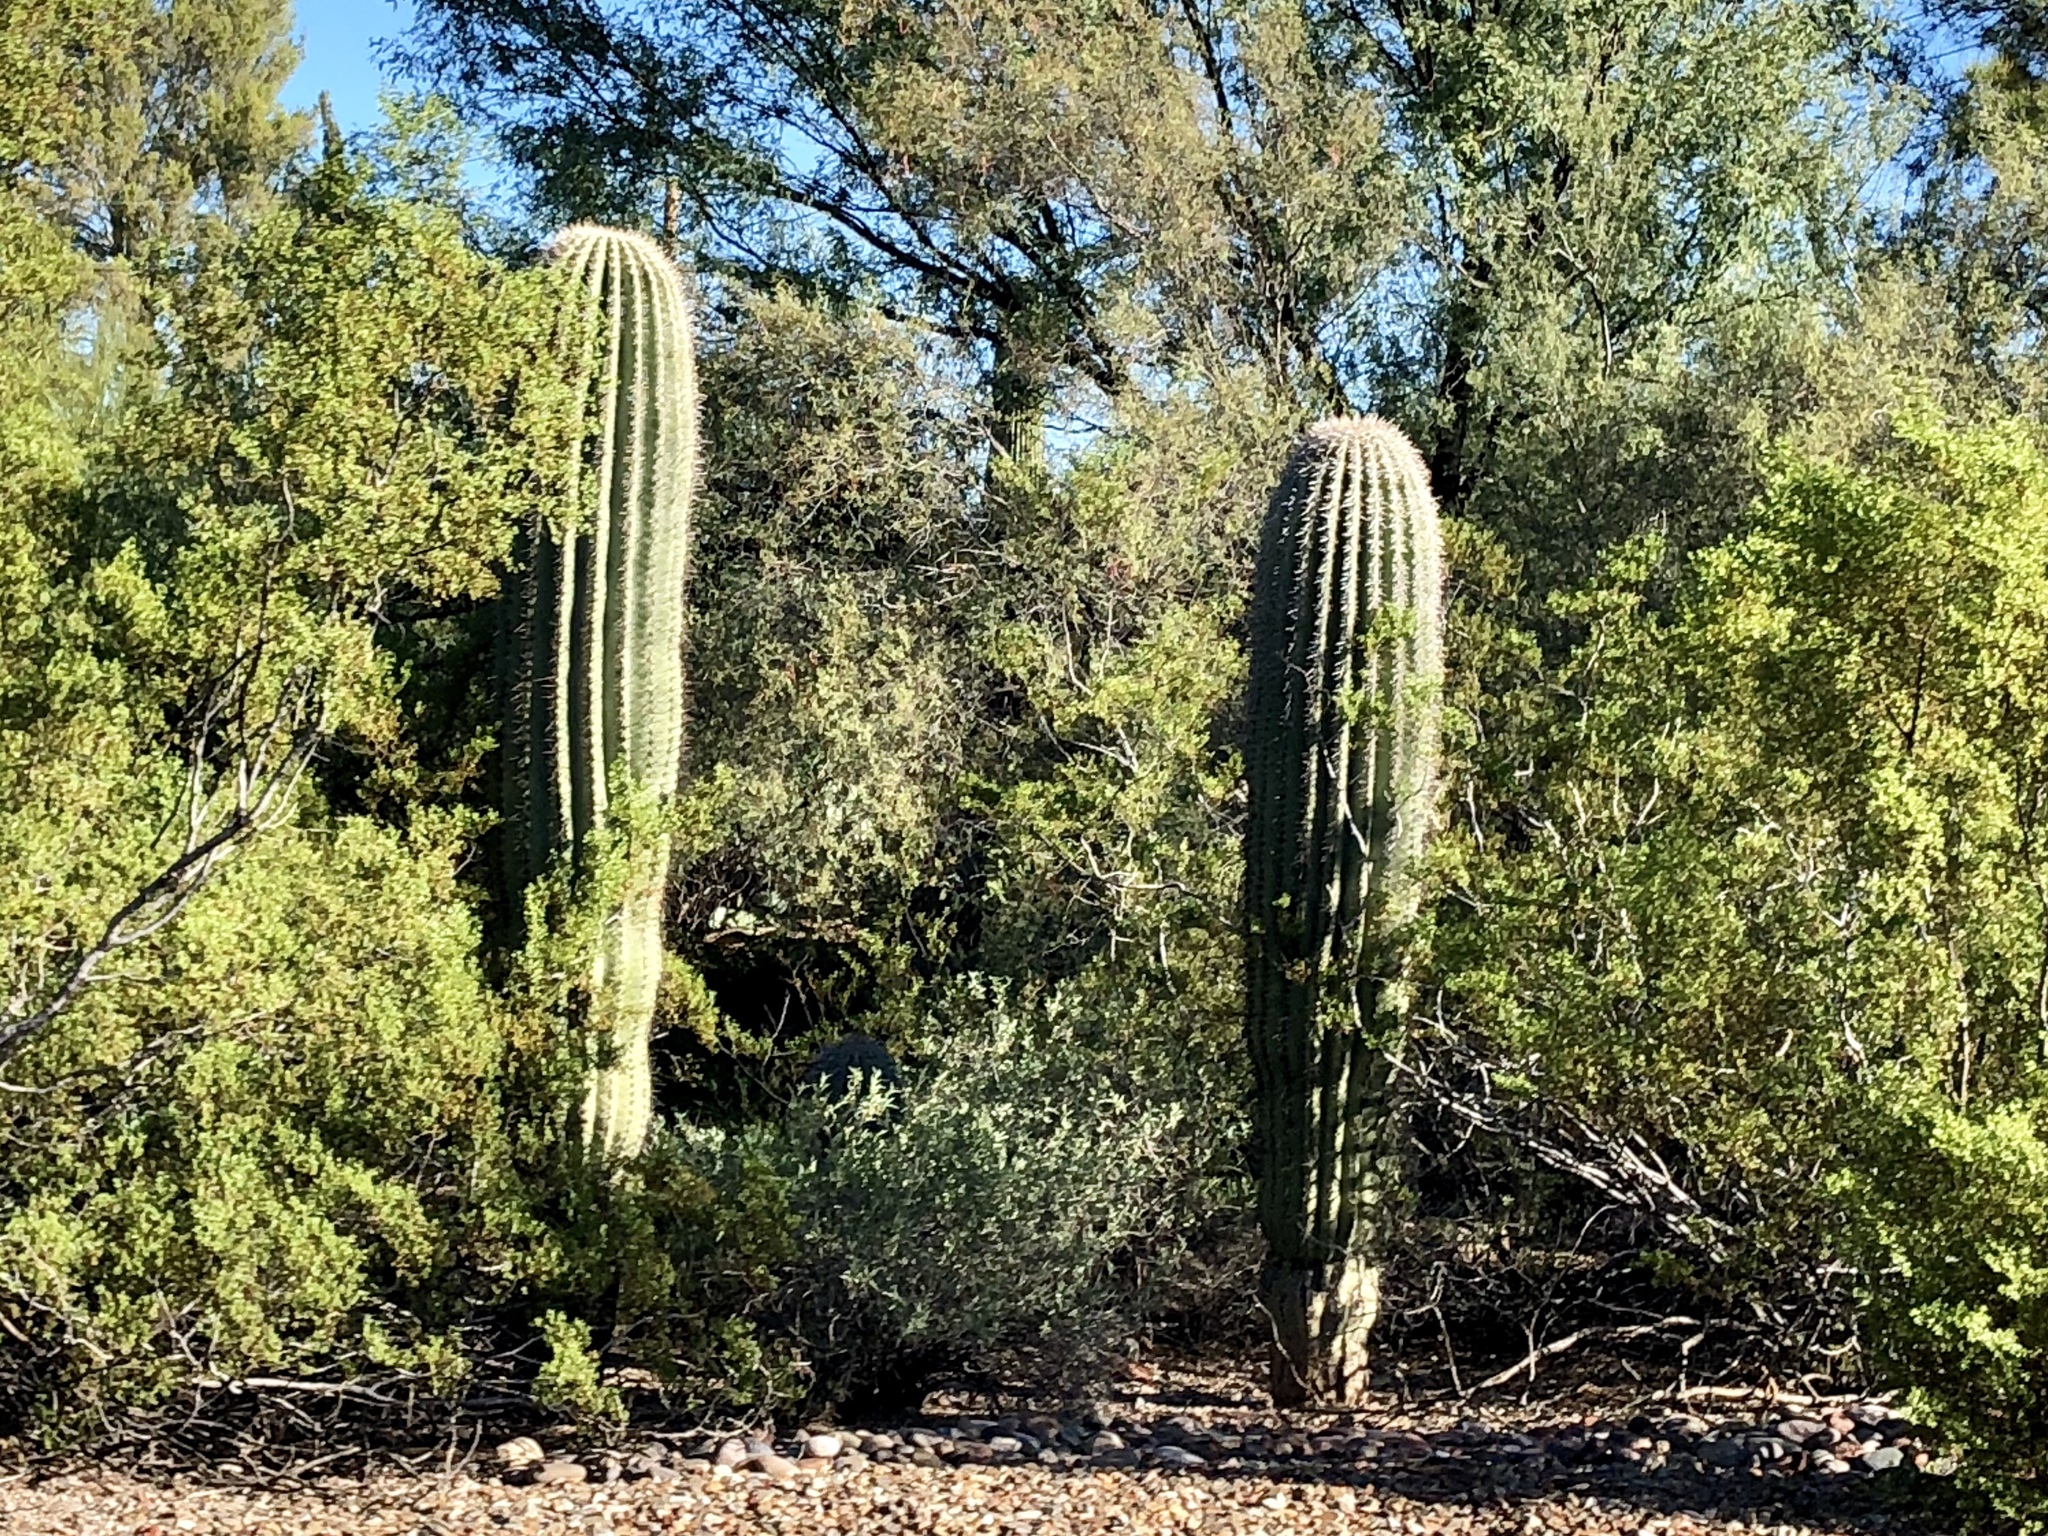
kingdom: Plantae
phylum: Tracheophyta
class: Magnoliopsida
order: Caryophyllales
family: Cactaceae
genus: Carnegiea
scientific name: Carnegiea gigantea
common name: Saguaro
